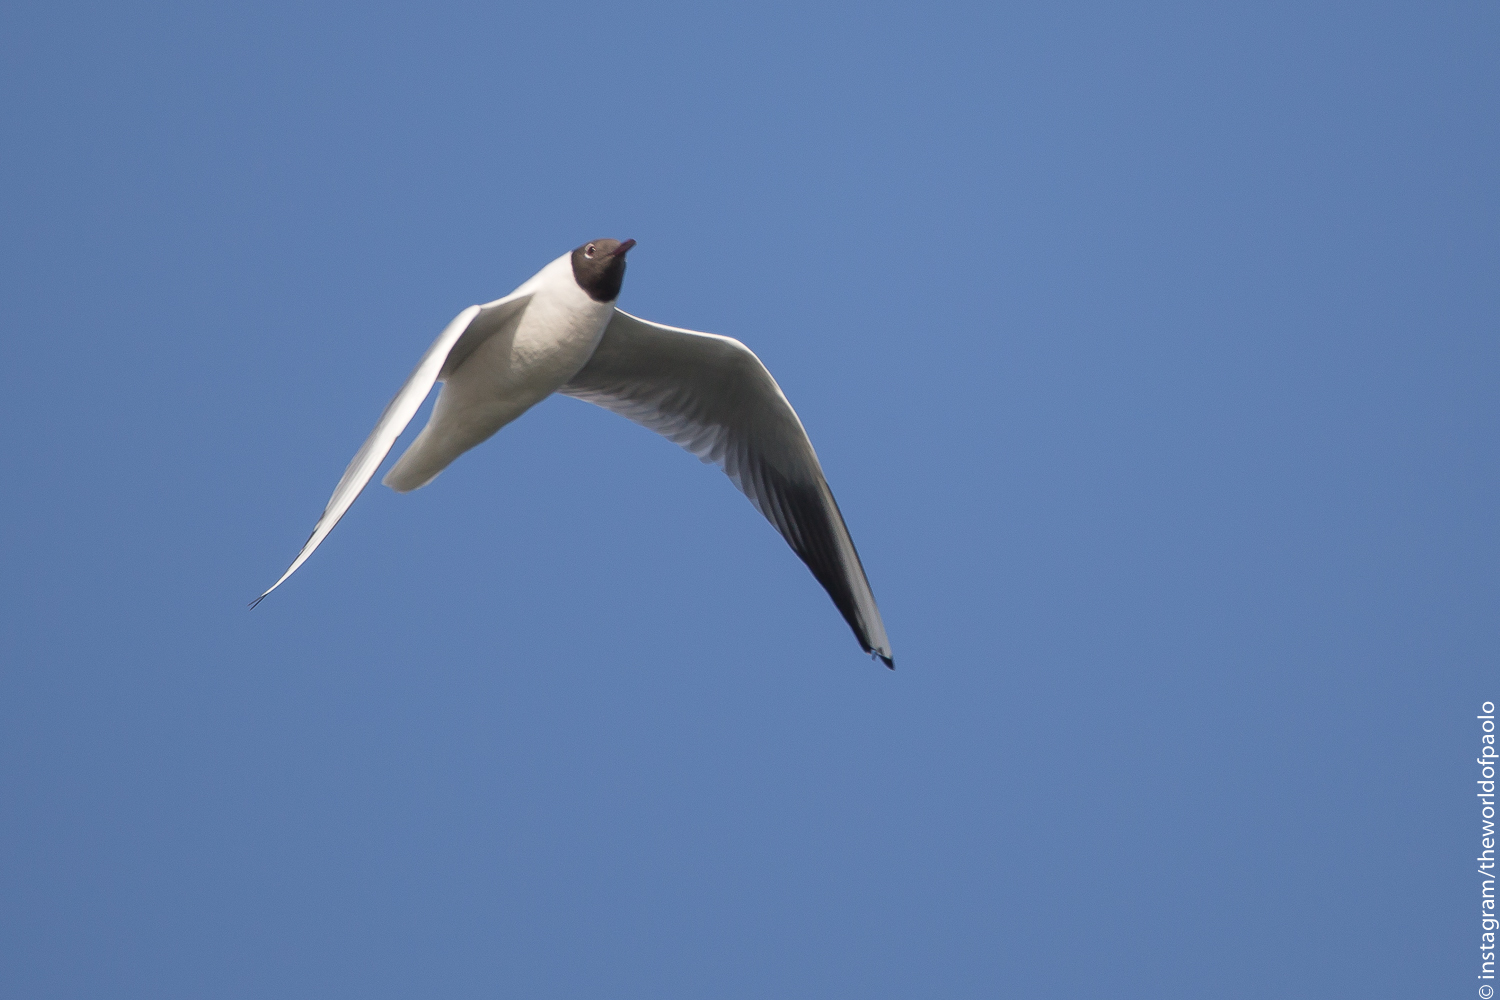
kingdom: Animalia
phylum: Chordata
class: Aves
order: Charadriiformes
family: Laridae
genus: Chroicocephalus
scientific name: Chroicocephalus ridibundus
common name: Black-headed gull
